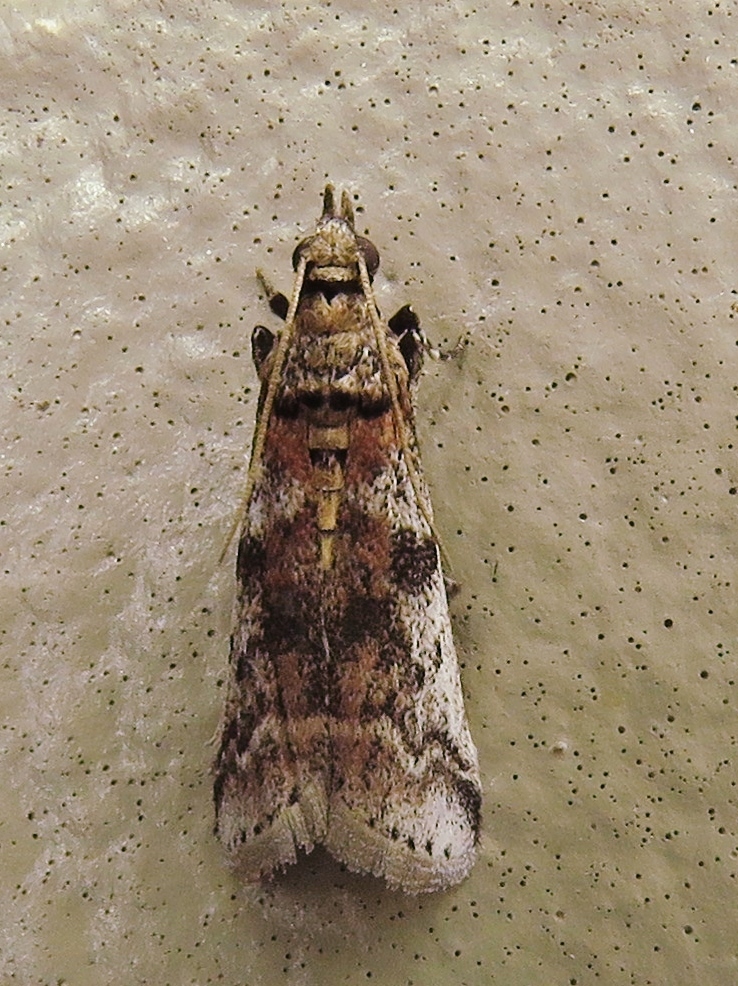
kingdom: Animalia
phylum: Arthropoda
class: Insecta
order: Lepidoptera
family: Pyralidae
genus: Laetilia
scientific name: Laetilia coccidivora
